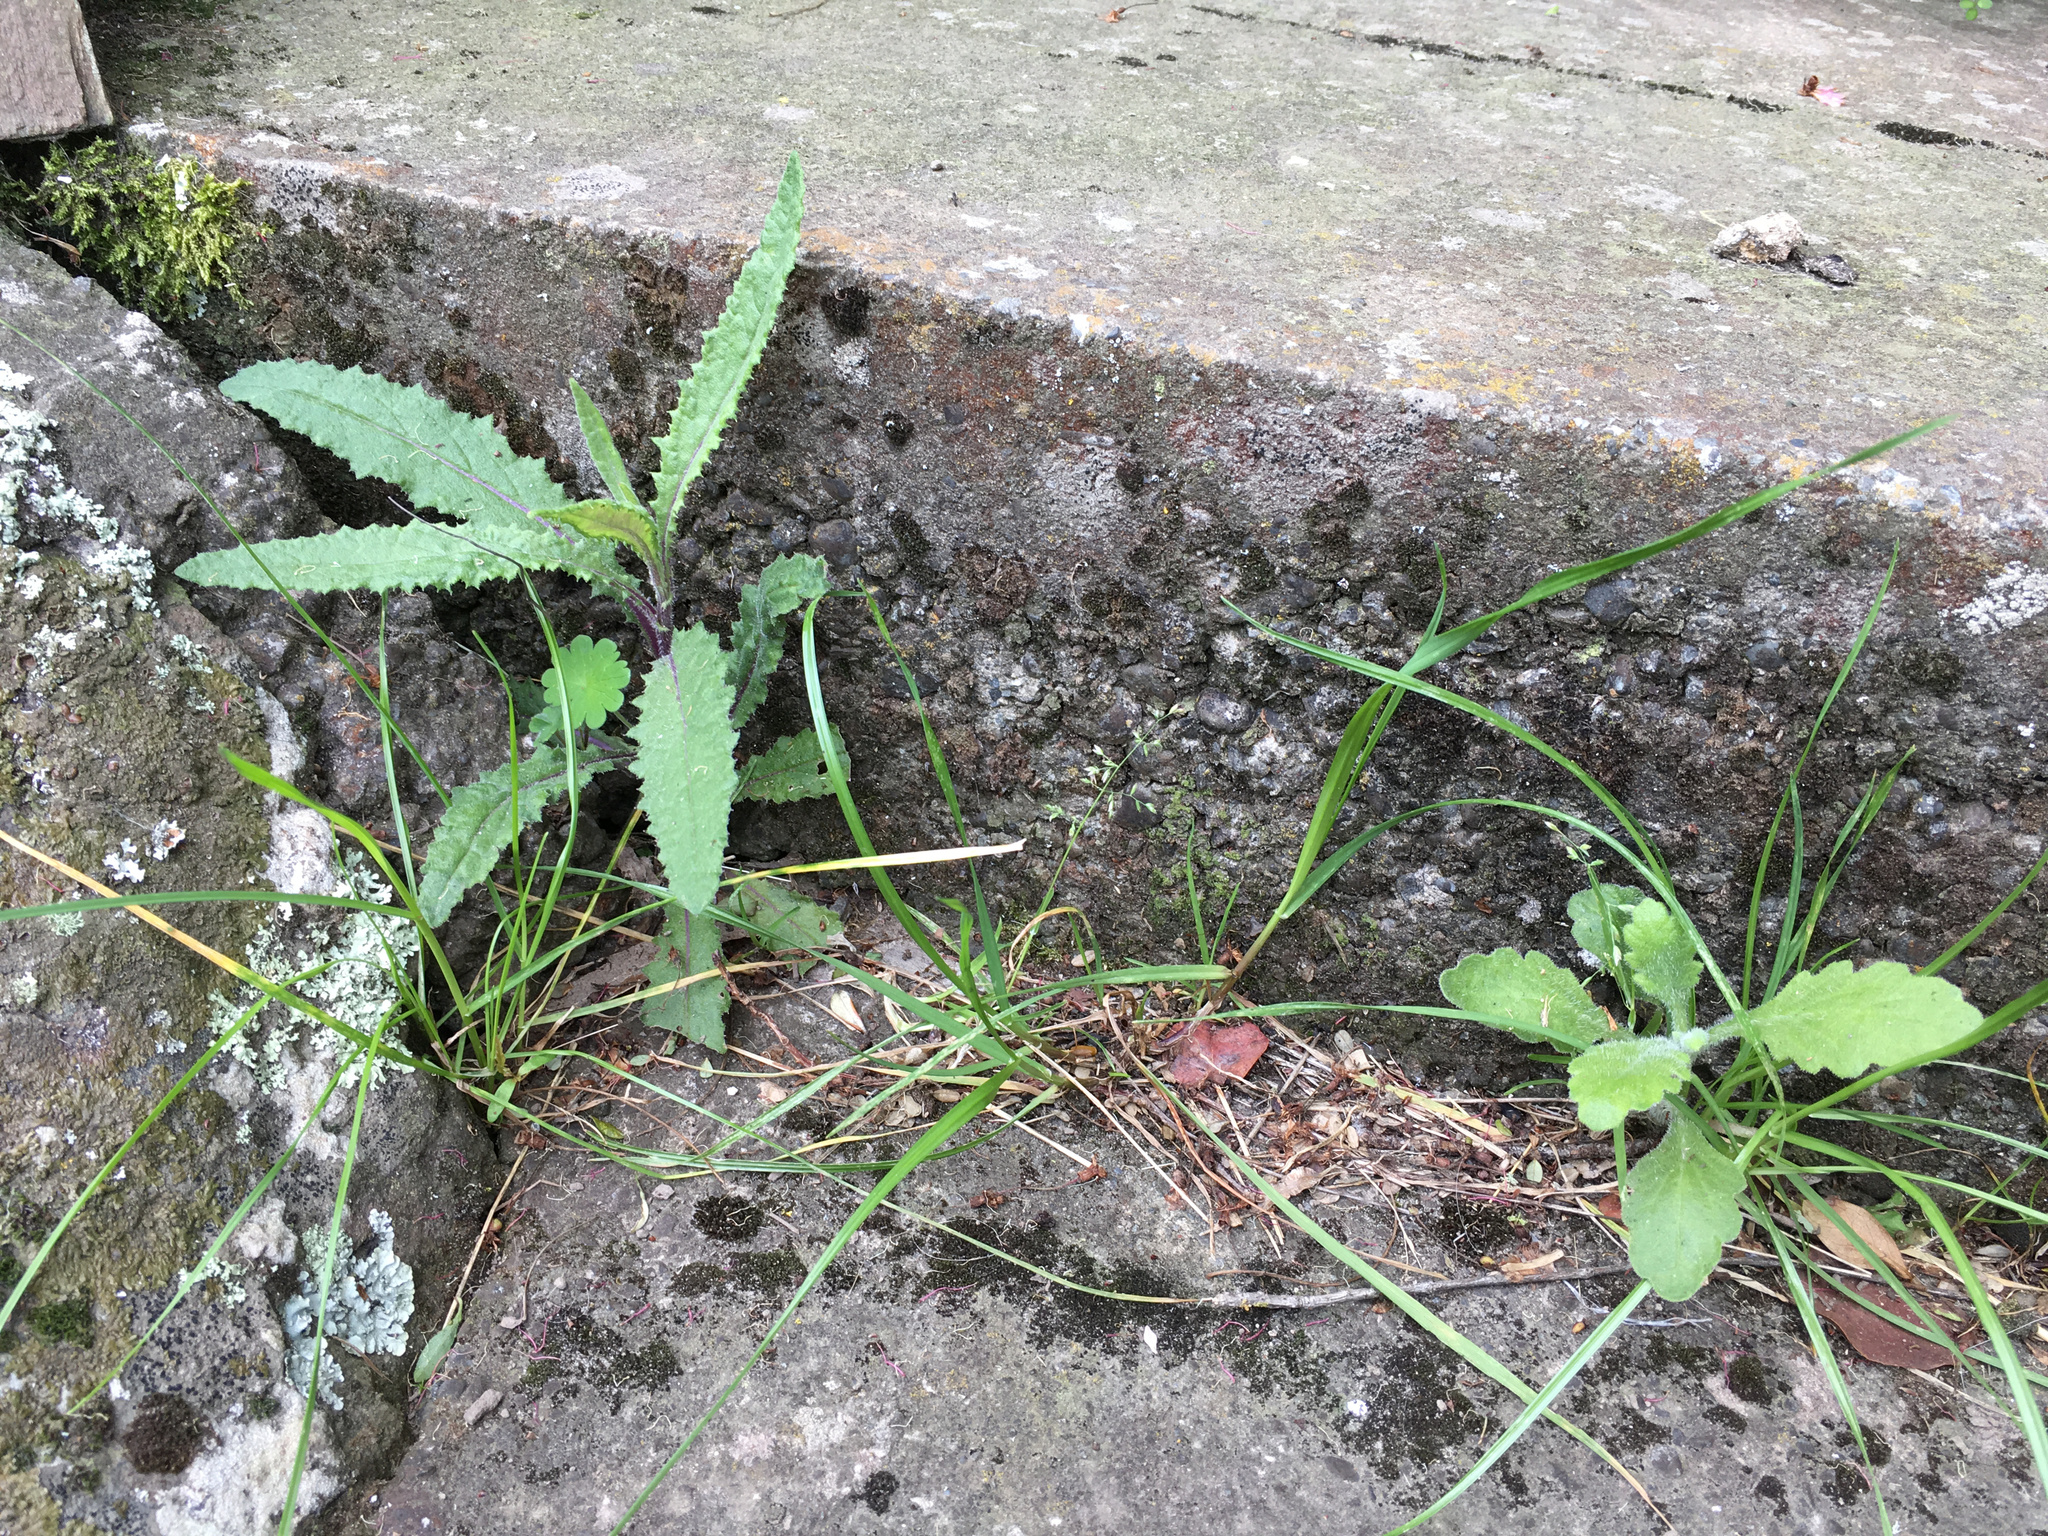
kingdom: Plantae
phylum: Tracheophyta
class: Magnoliopsida
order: Asterales
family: Asteraceae
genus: Senecio
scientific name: Senecio minimus
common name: Toothed fireweed
